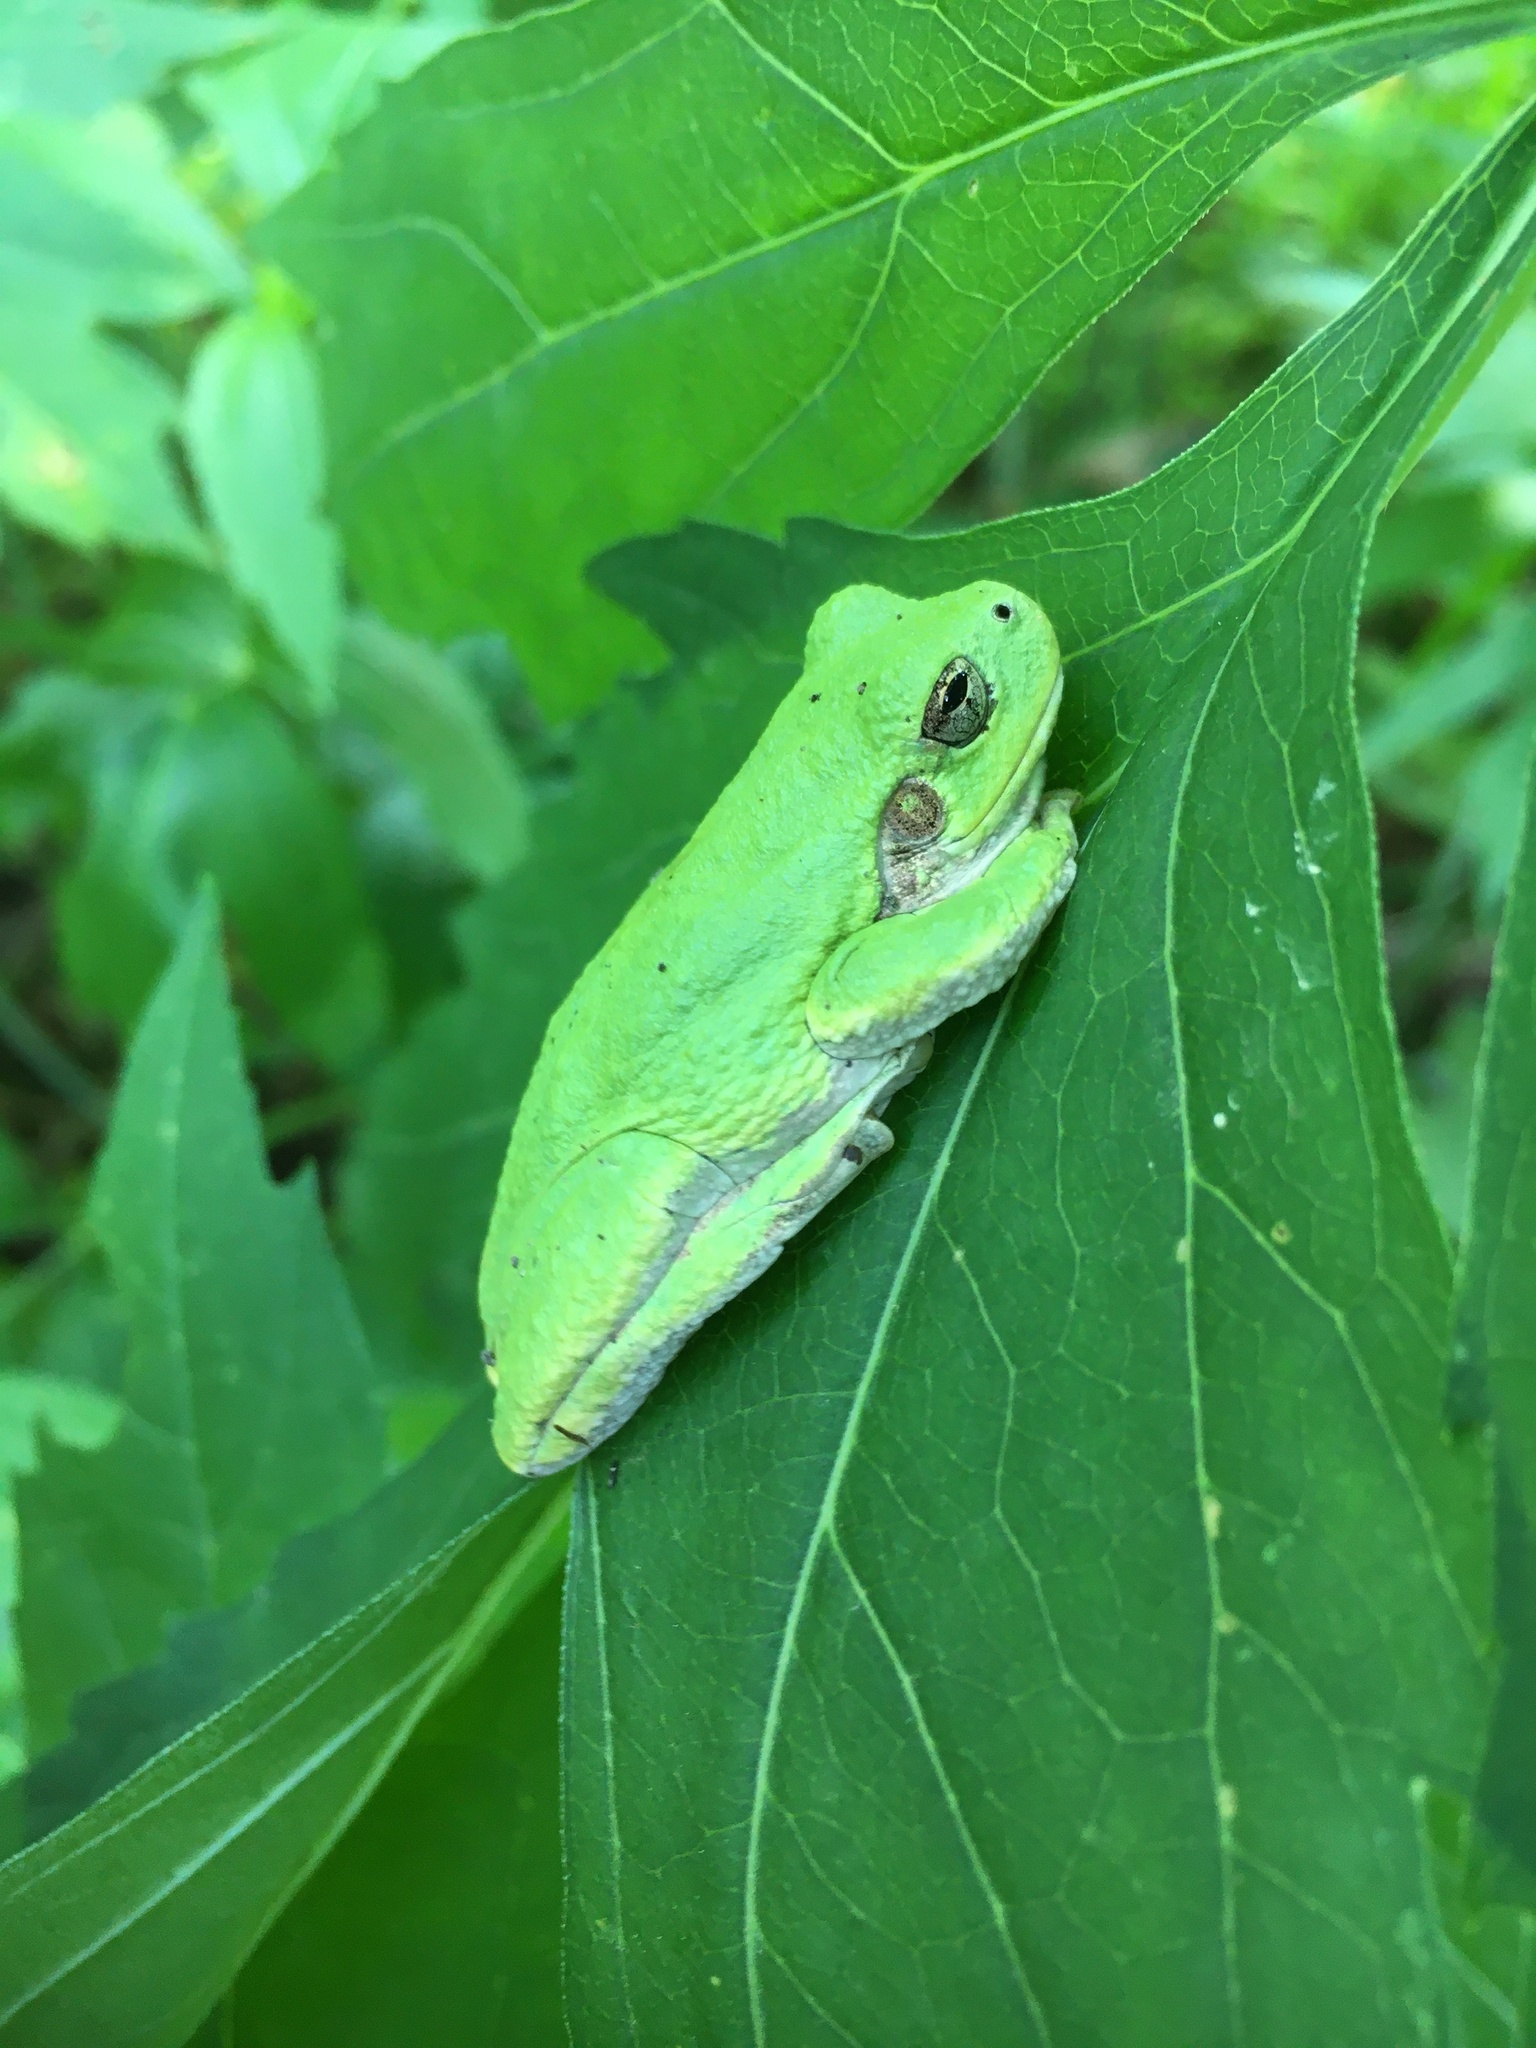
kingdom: Animalia
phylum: Chordata
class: Amphibia
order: Anura
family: Hylidae
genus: Hyla
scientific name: Hyla
